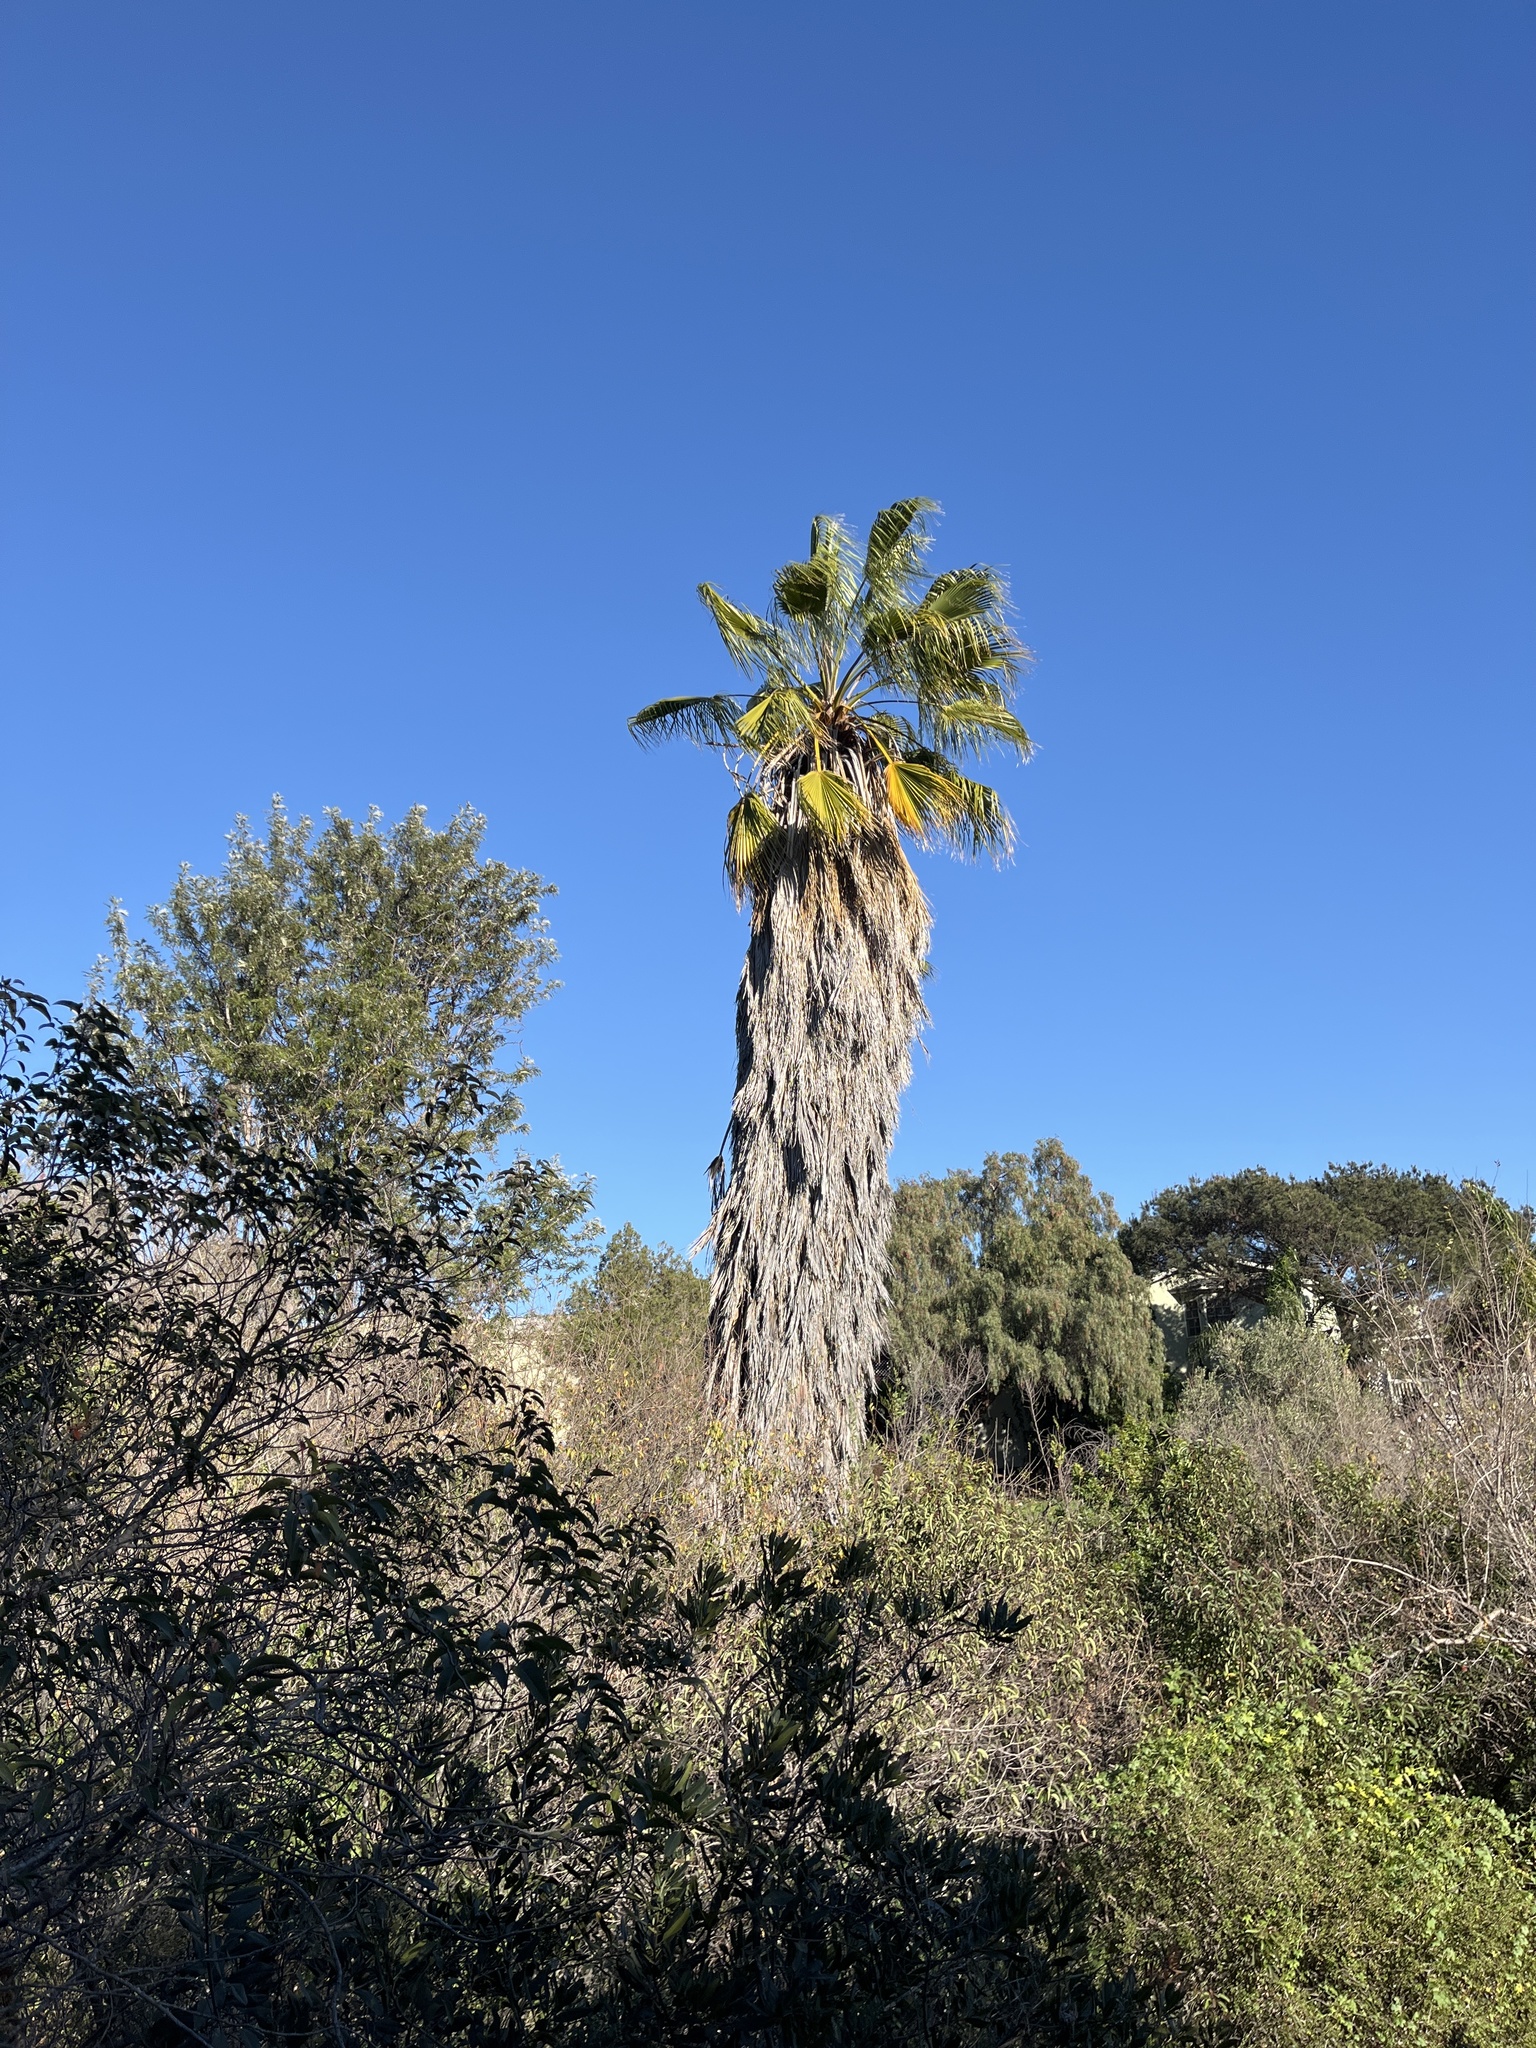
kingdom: Plantae
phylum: Tracheophyta
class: Liliopsida
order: Arecales
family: Arecaceae
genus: Washingtonia
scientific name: Washingtonia robusta
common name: Mexican fan palm
